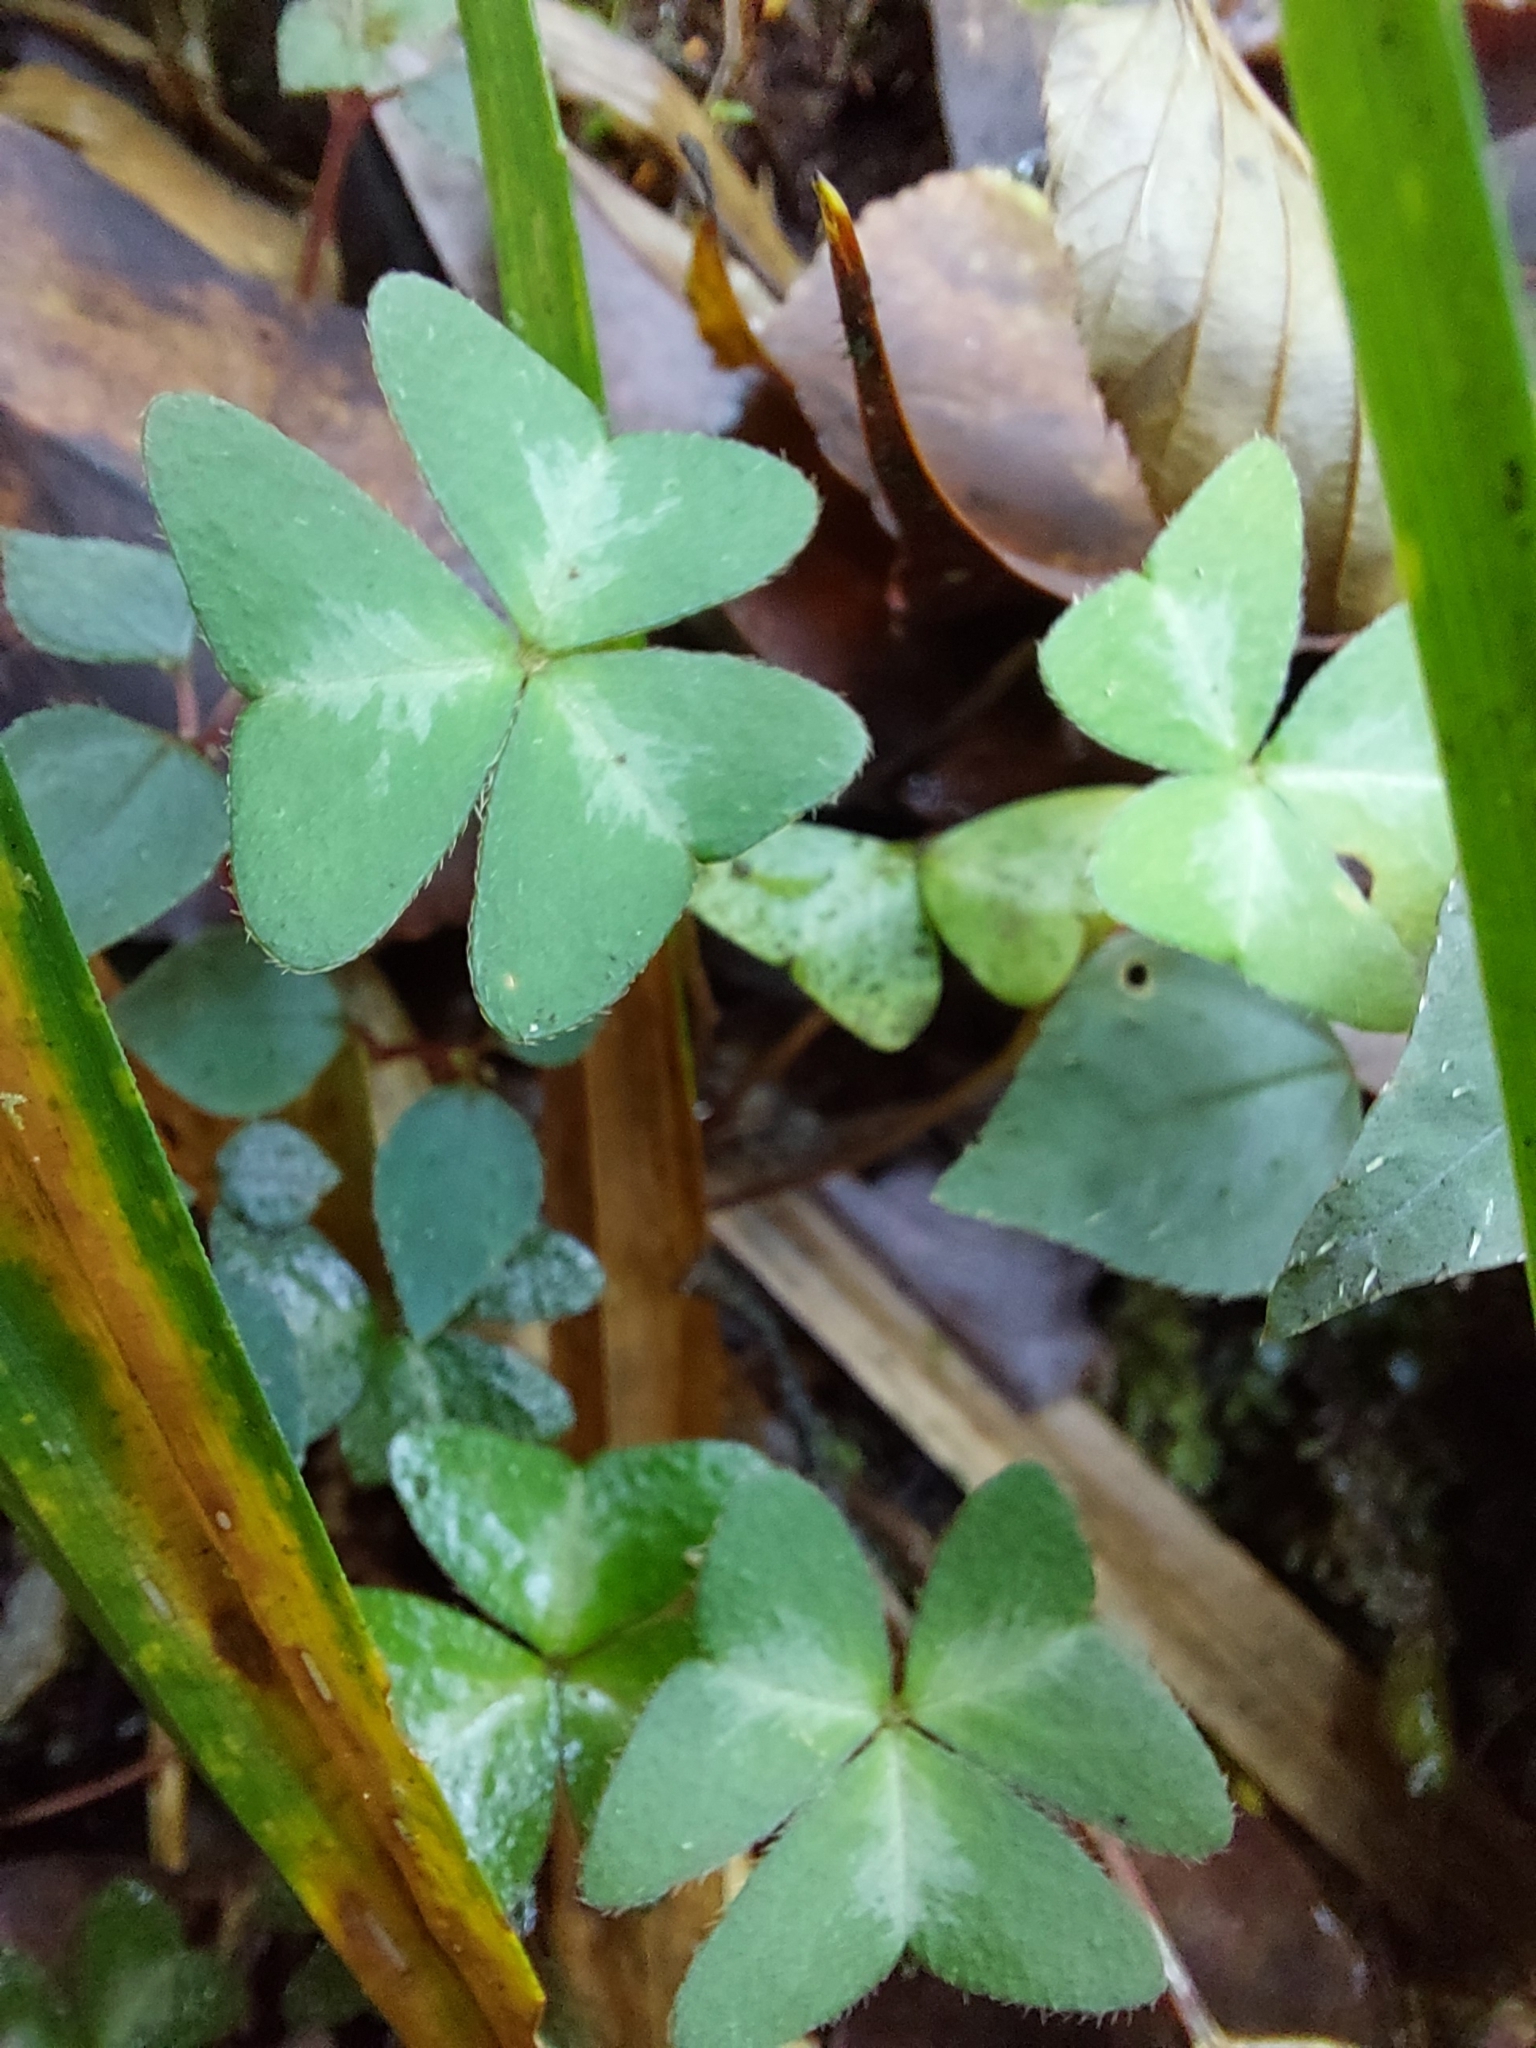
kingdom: Plantae
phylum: Tracheophyta
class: Magnoliopsida
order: Oxalidales
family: Oxalidaceae
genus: Oxalis
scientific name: Oxalis griffithii
